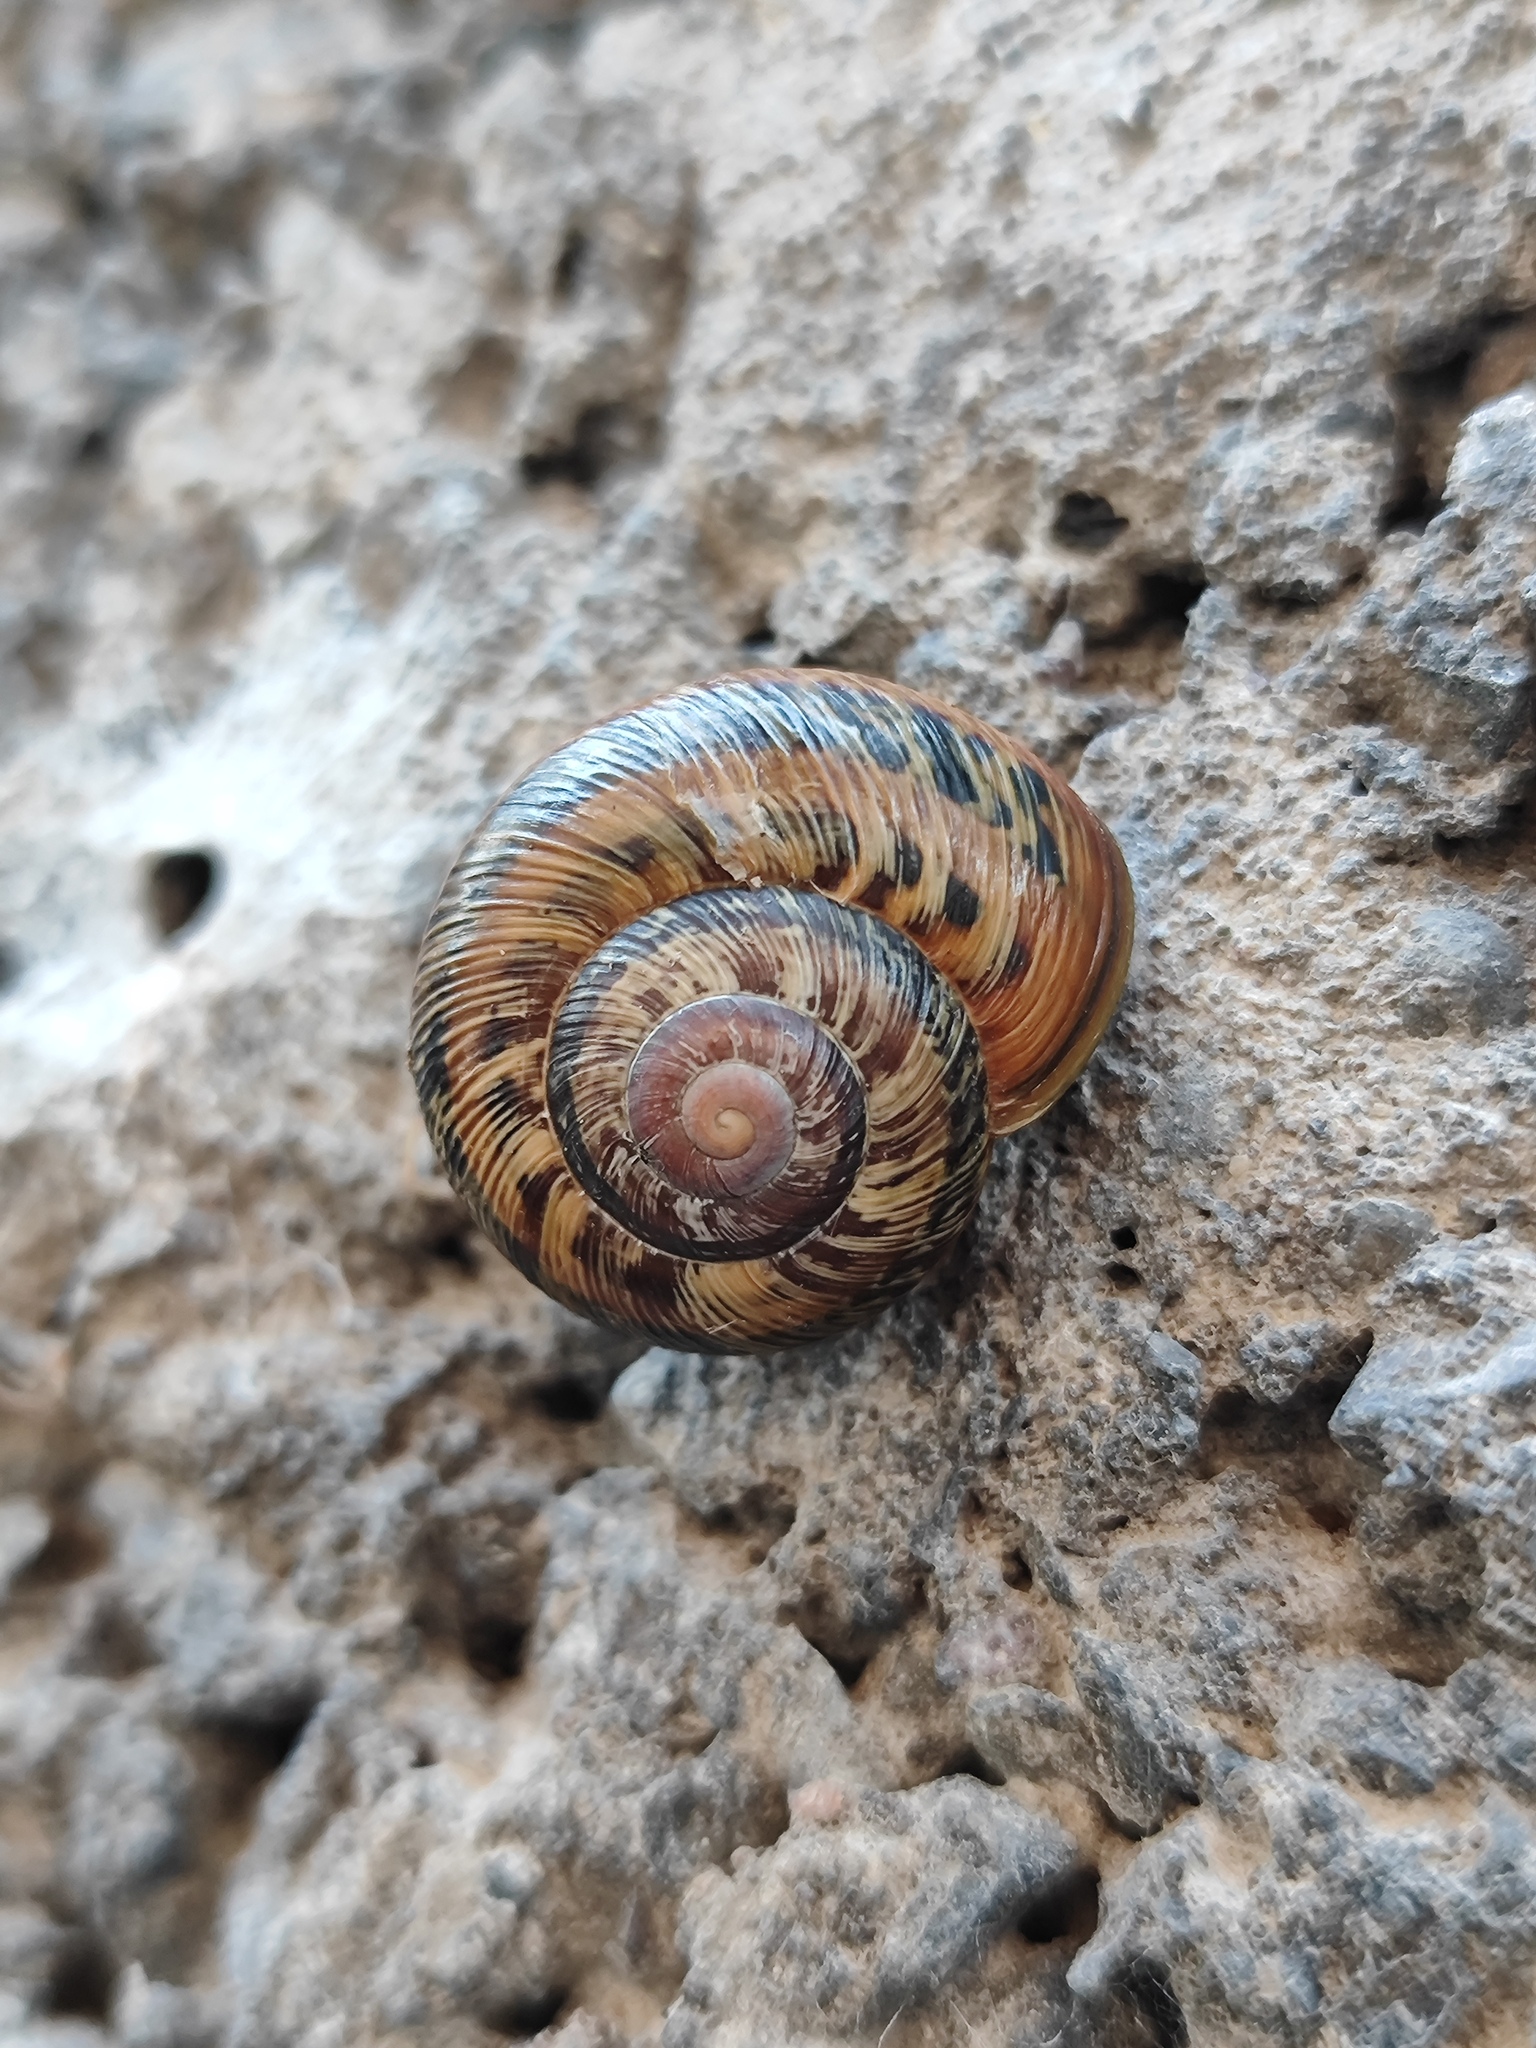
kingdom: Animalia
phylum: Mollusca
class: Gastropoda
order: Stylommatophora
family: Helicidae
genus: Caucasotachea
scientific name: Caucasotachea leucoranea
